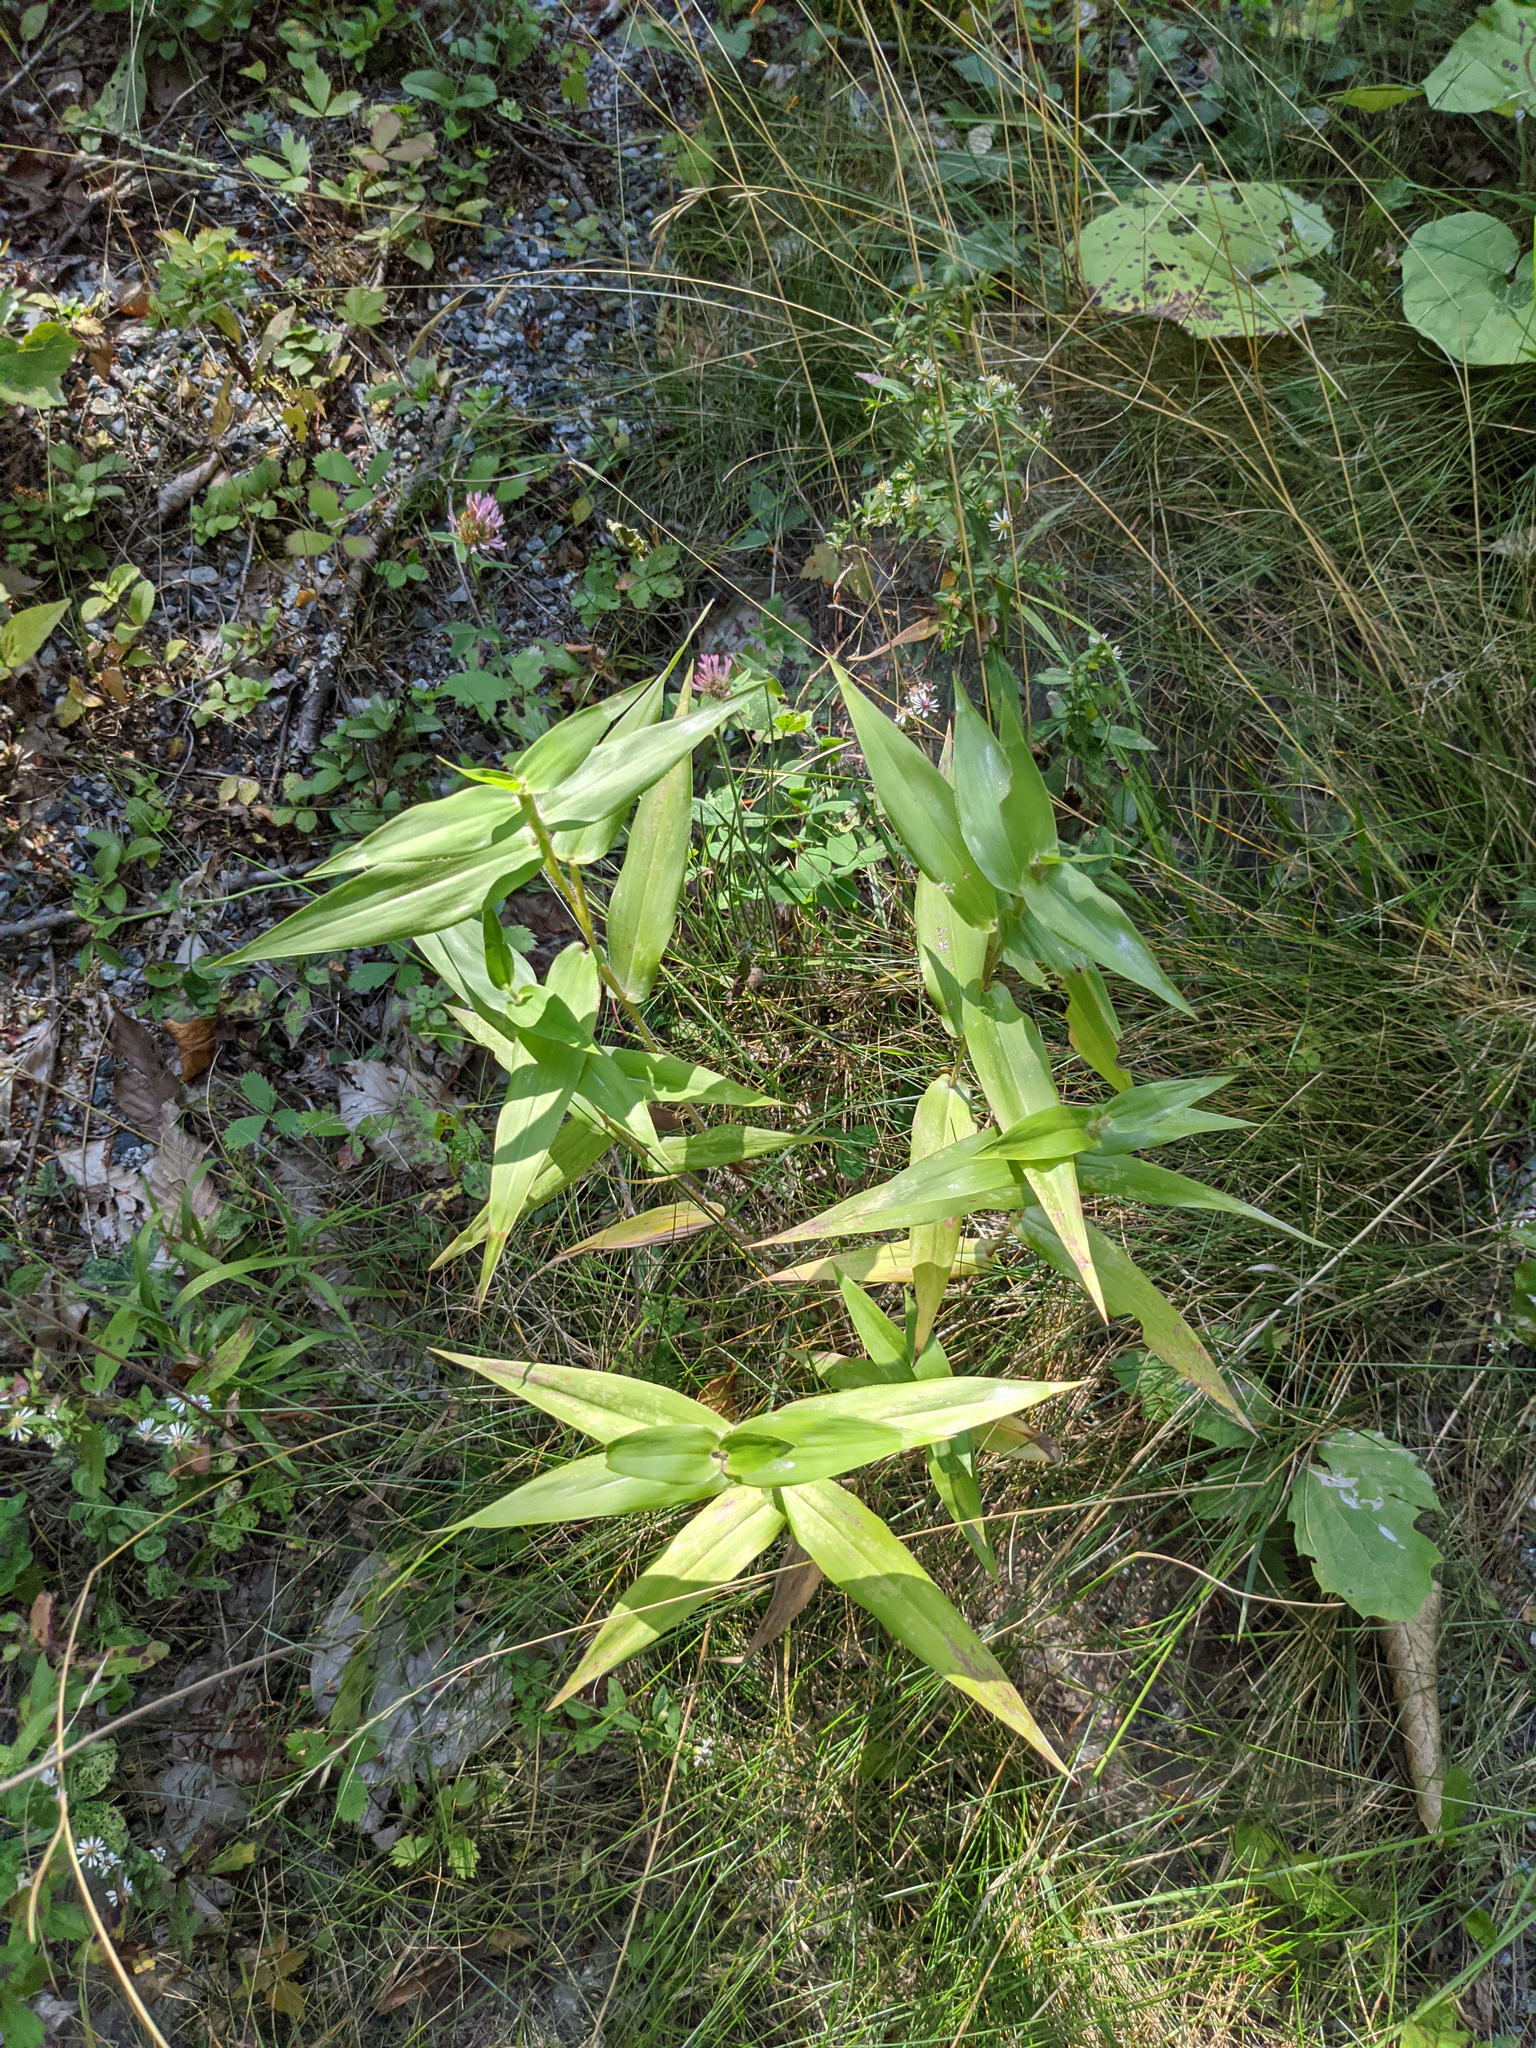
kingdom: Plantae
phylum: Tracheophyta
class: Liliopsida
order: Poales
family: Poaceae
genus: Dichanthelium
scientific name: Dichanthelium clandestinum
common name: Deer-tongue grass
